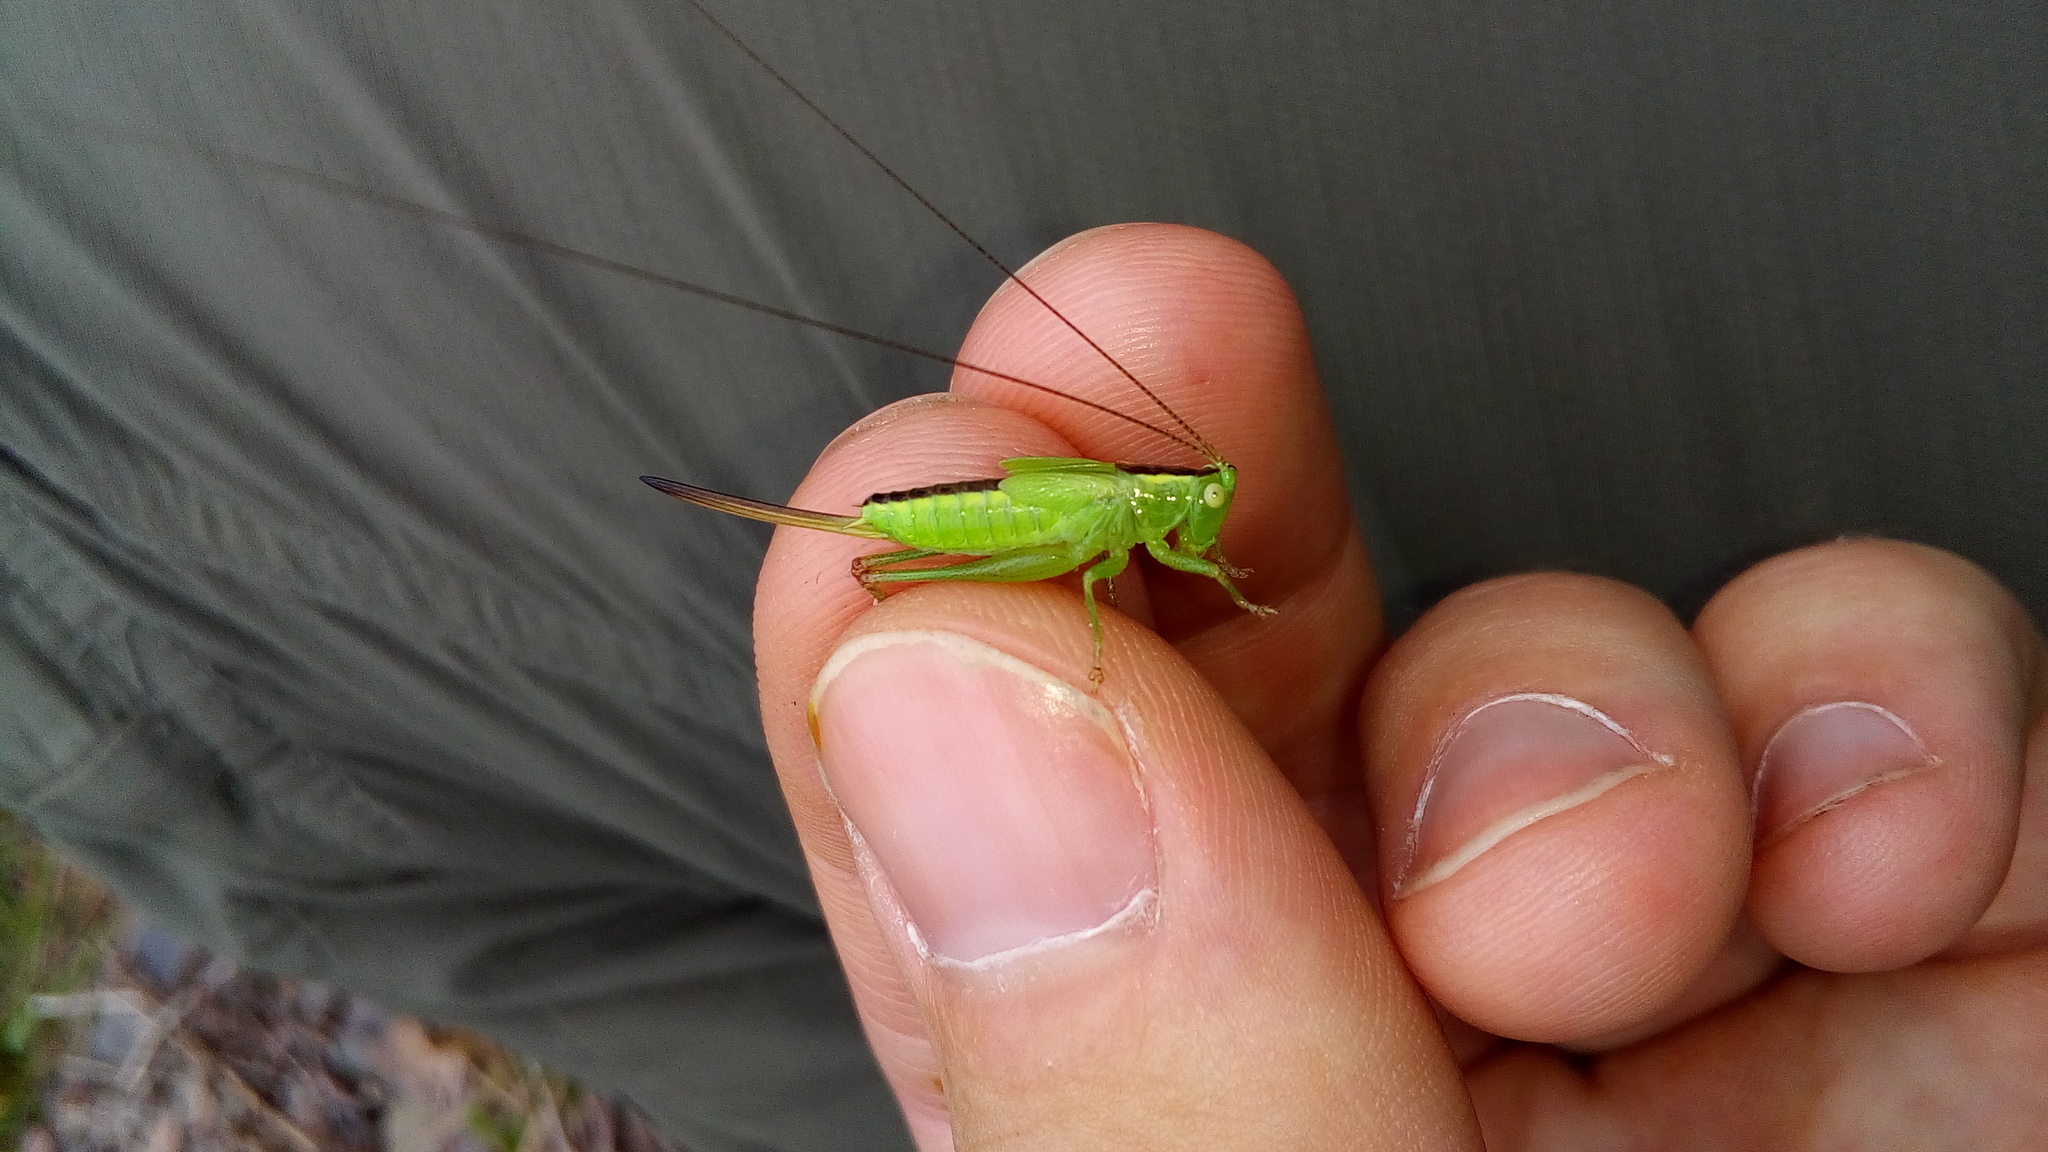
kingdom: Animalia
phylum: Arthropoda
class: Insecta
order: Orthoptera
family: Tettigoniidae
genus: Conocephalus
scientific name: Conocephalus fuscus
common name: Long-winged conehead
